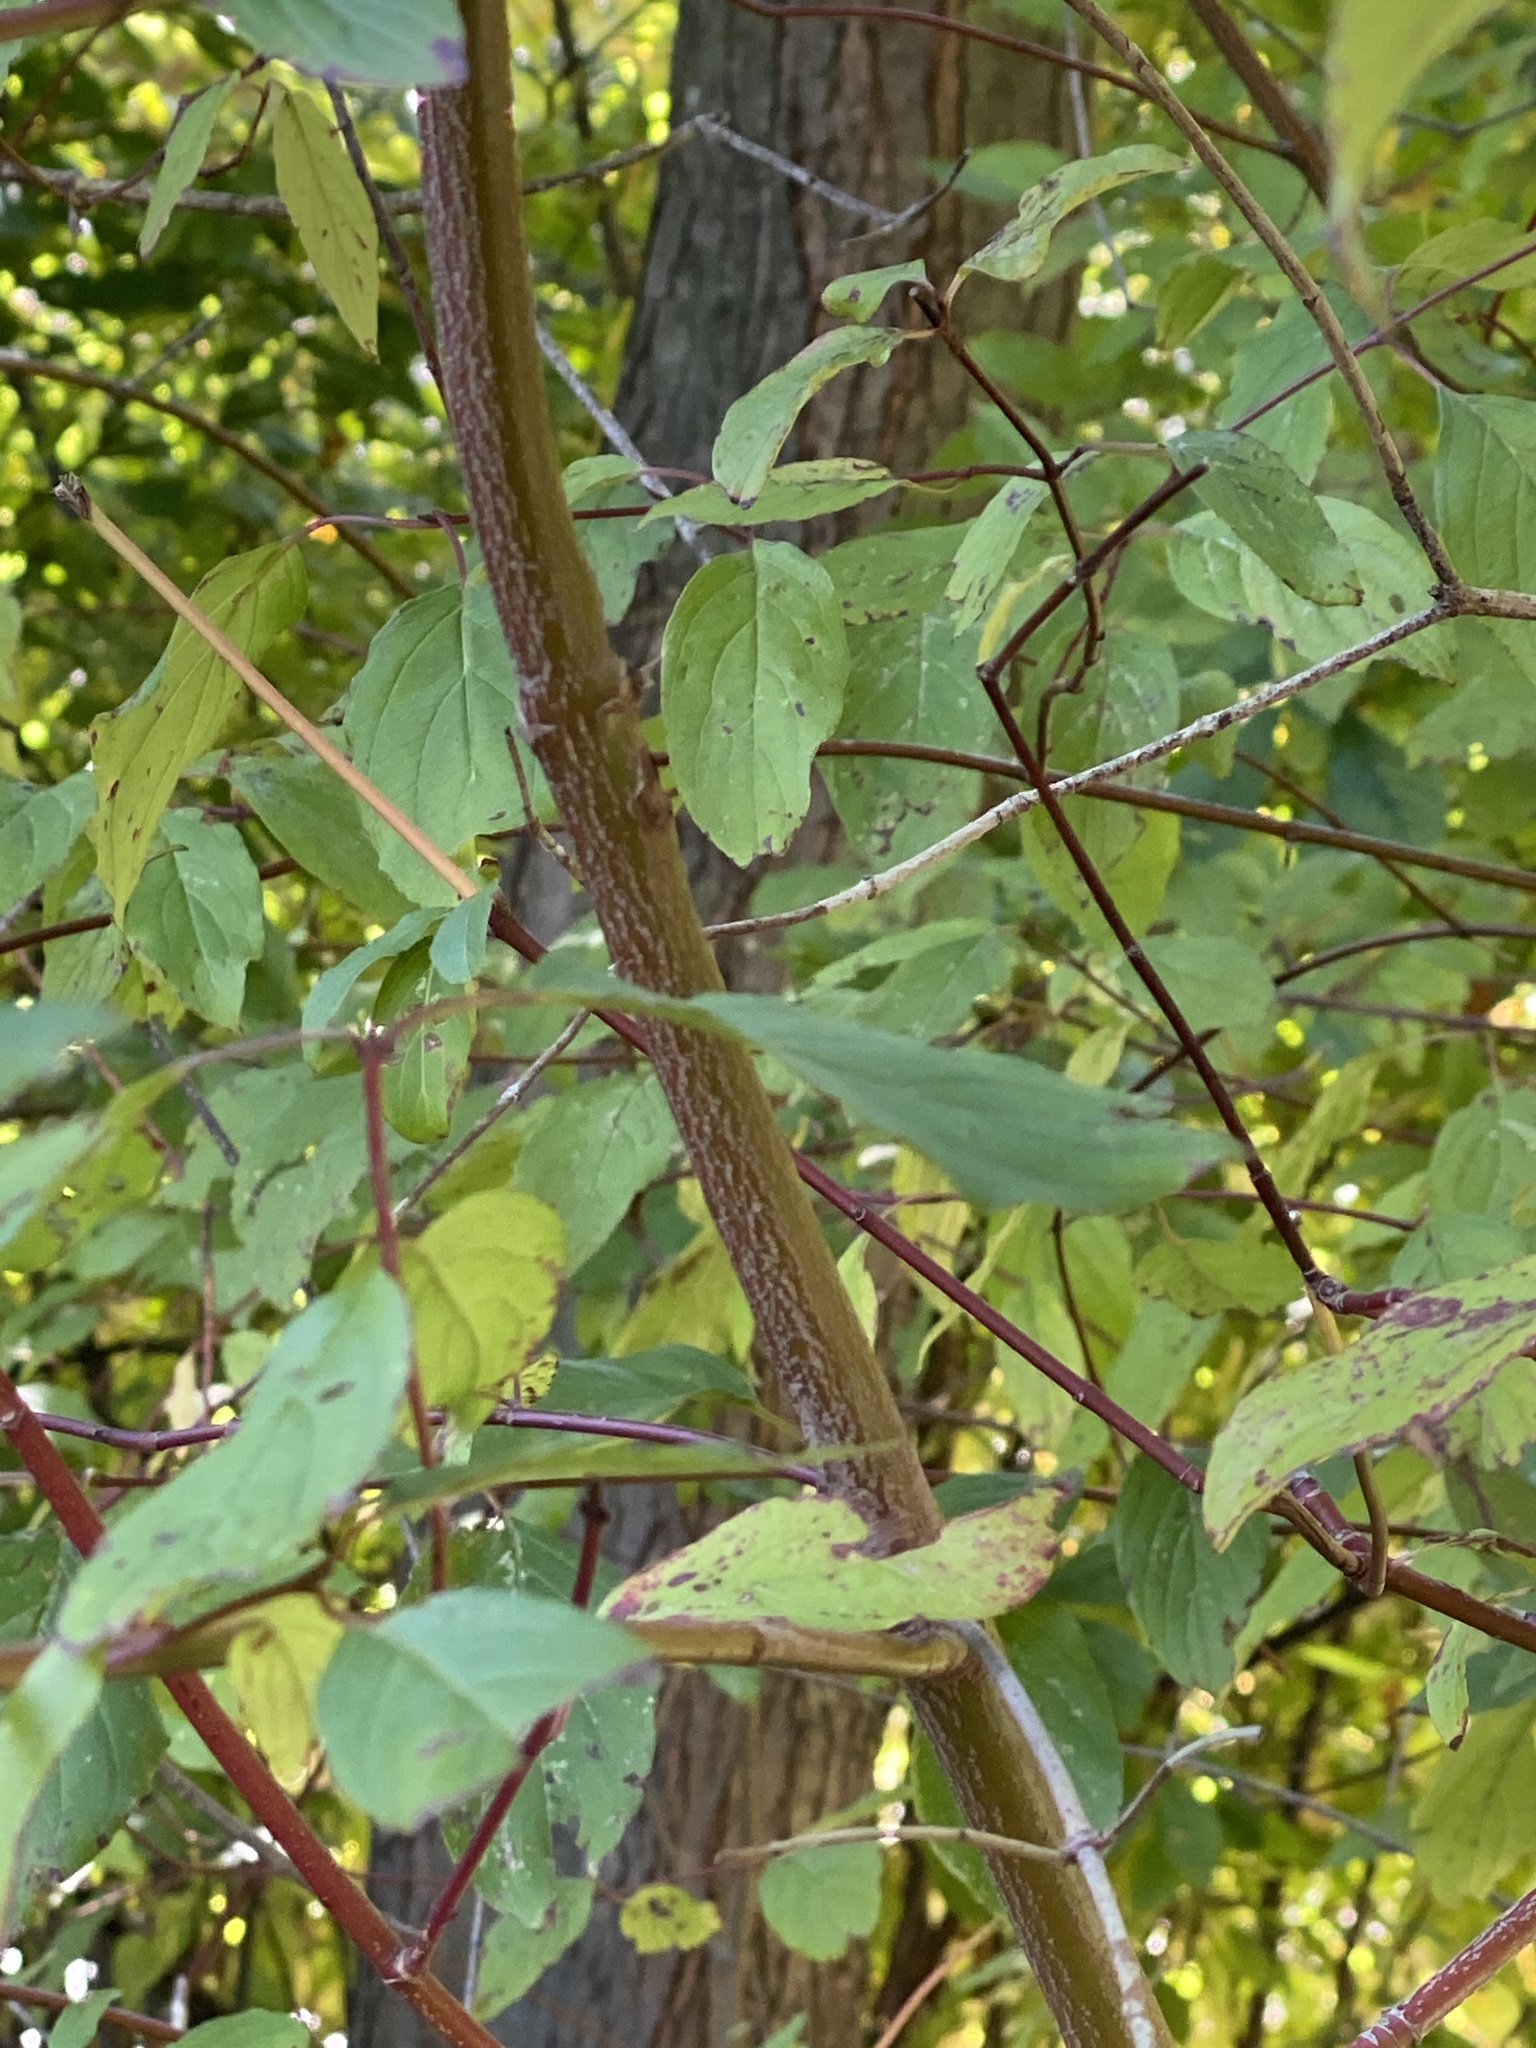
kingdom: Plantae
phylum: Tracheophyta
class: Magnoliopsida
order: Cornales
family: Cornaceae
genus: Cornus
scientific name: Cornus amomum
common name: Silky dogwood
